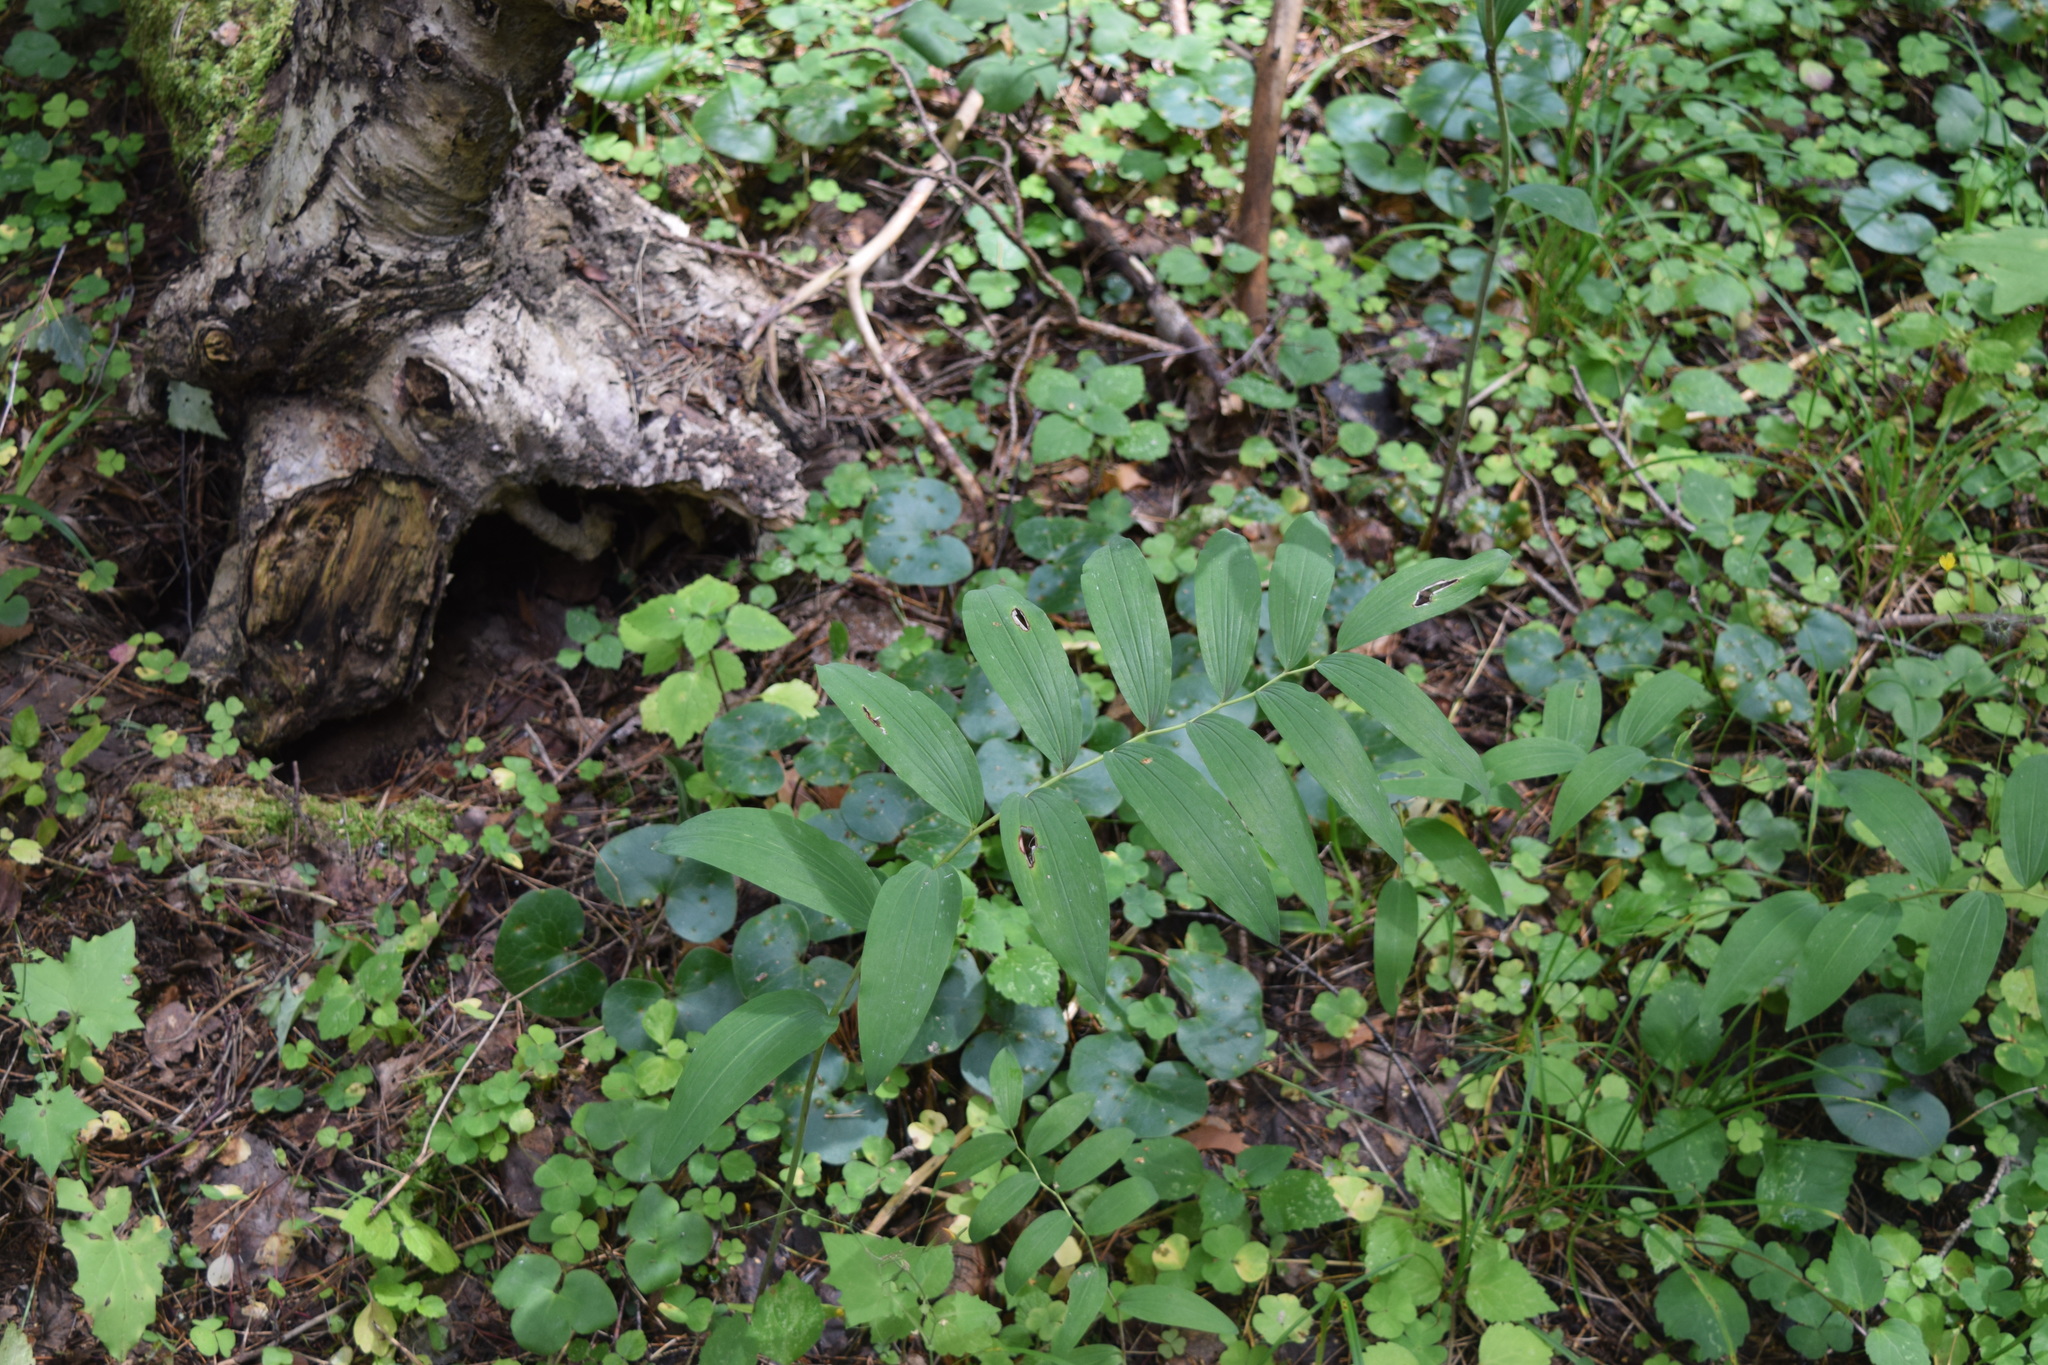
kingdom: Plantae
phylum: Tracheophyta
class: Liliopsida
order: Asparagales
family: Asparagaceae
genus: Polygonatum
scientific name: Polygonatum multiflorum
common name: Solomon's-seal
